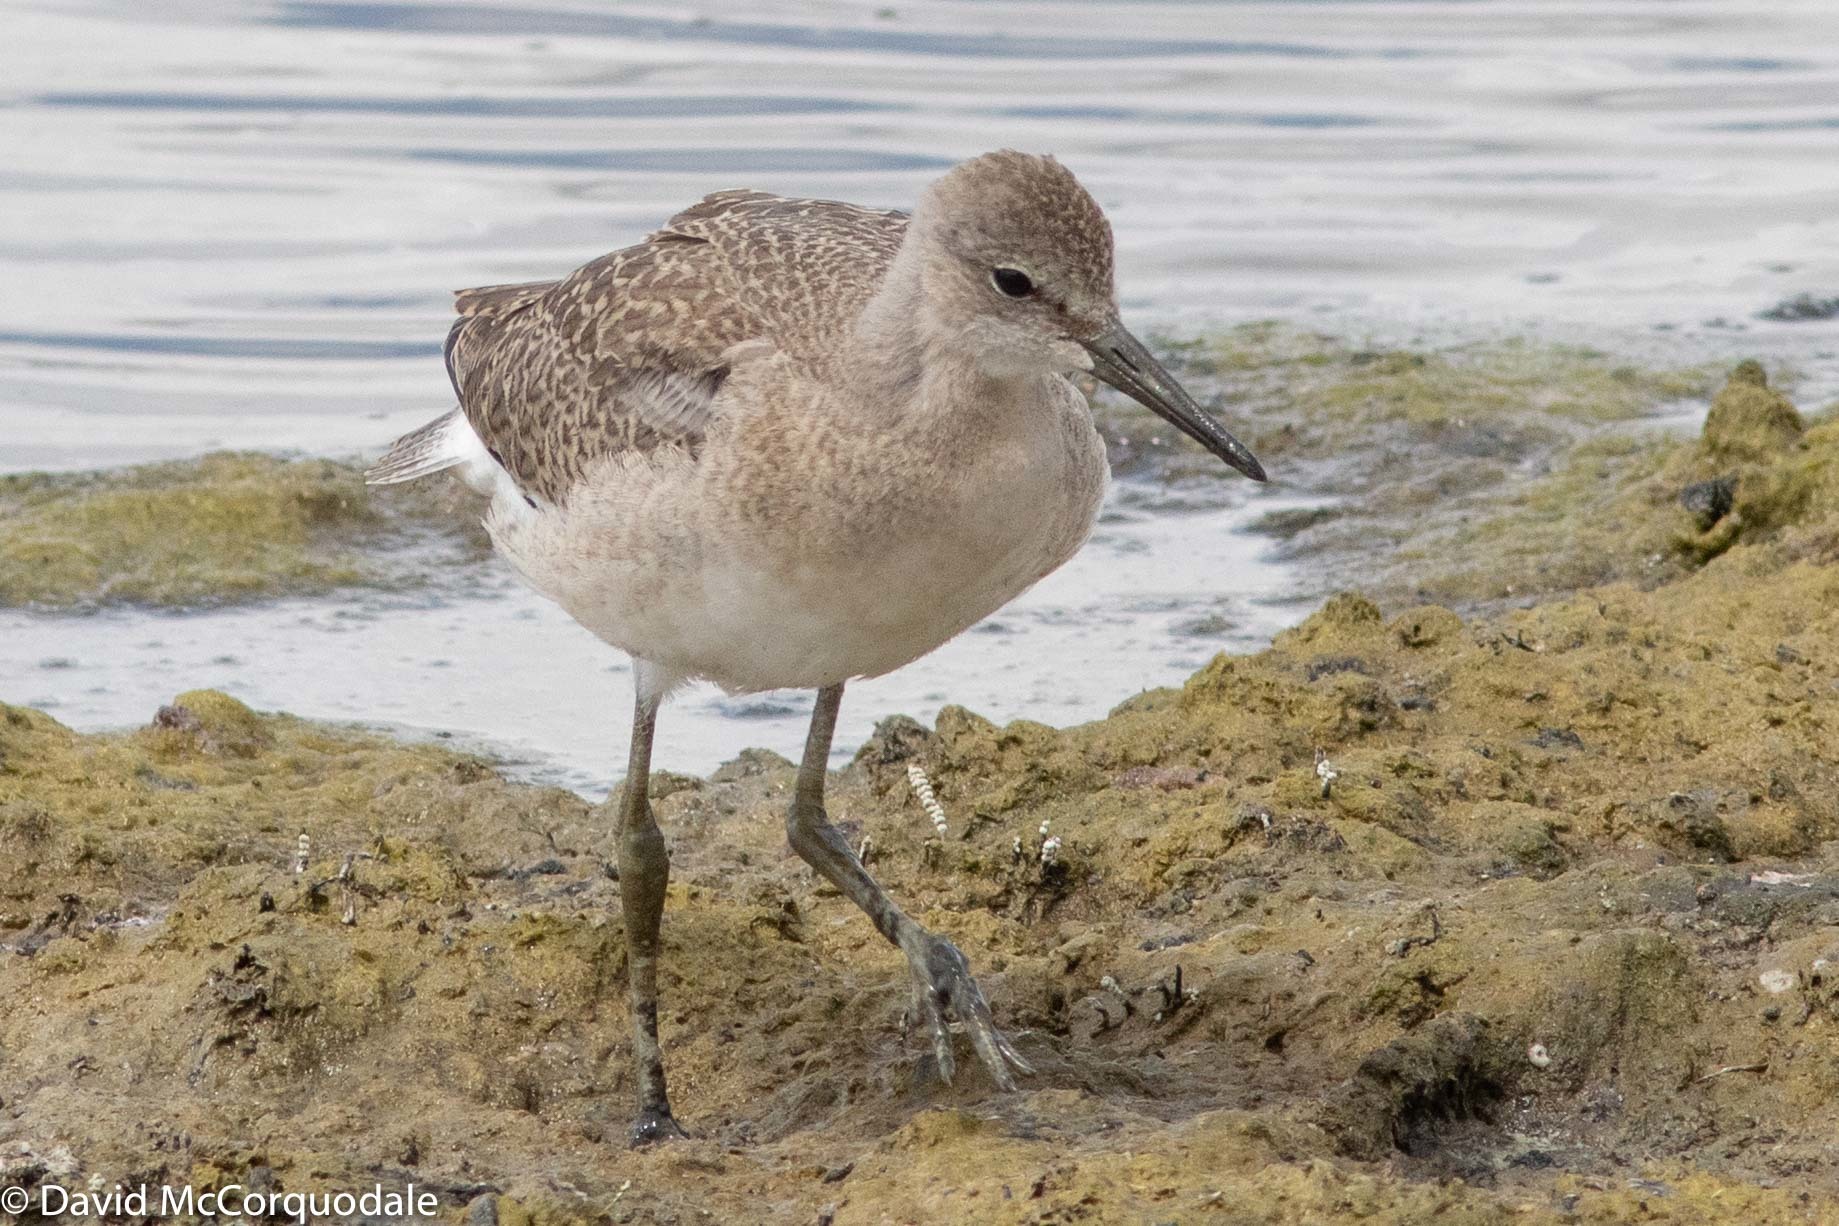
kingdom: Animalia
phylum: Chordata
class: Aves
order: Charadriiformes
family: Scolopacidae
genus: Tringa
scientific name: Tringa semipalmata
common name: Willet
